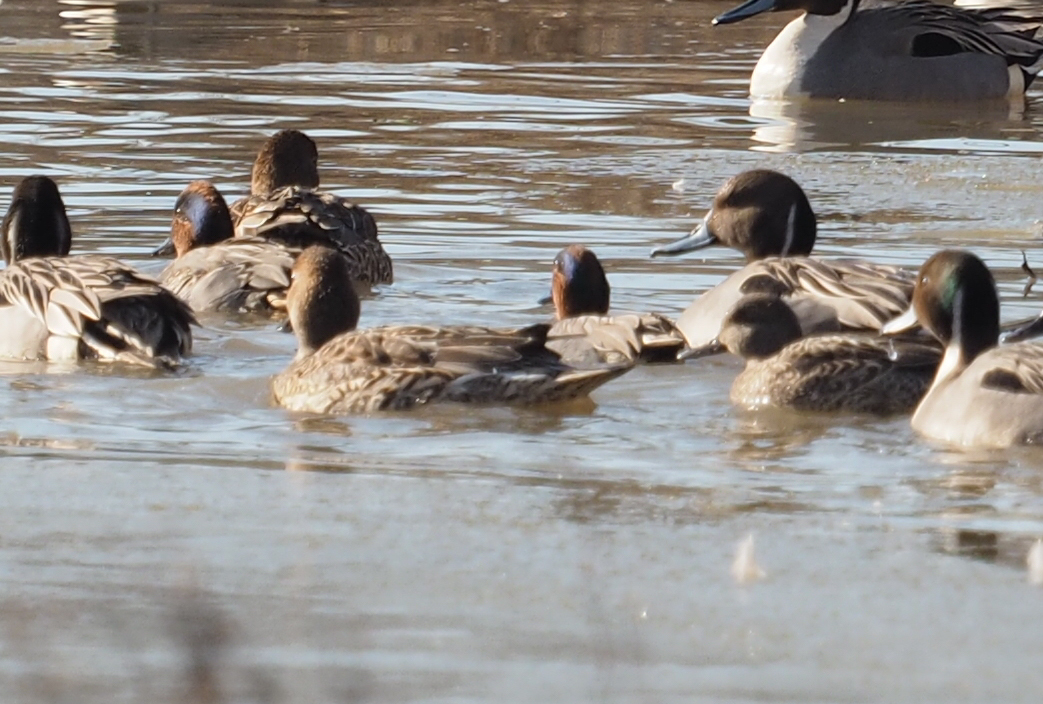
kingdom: Animalia
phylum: Chordata
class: Aves
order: Anseriformes
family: Anatidae
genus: Anas
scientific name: Anas acuta
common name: Northern pintail
